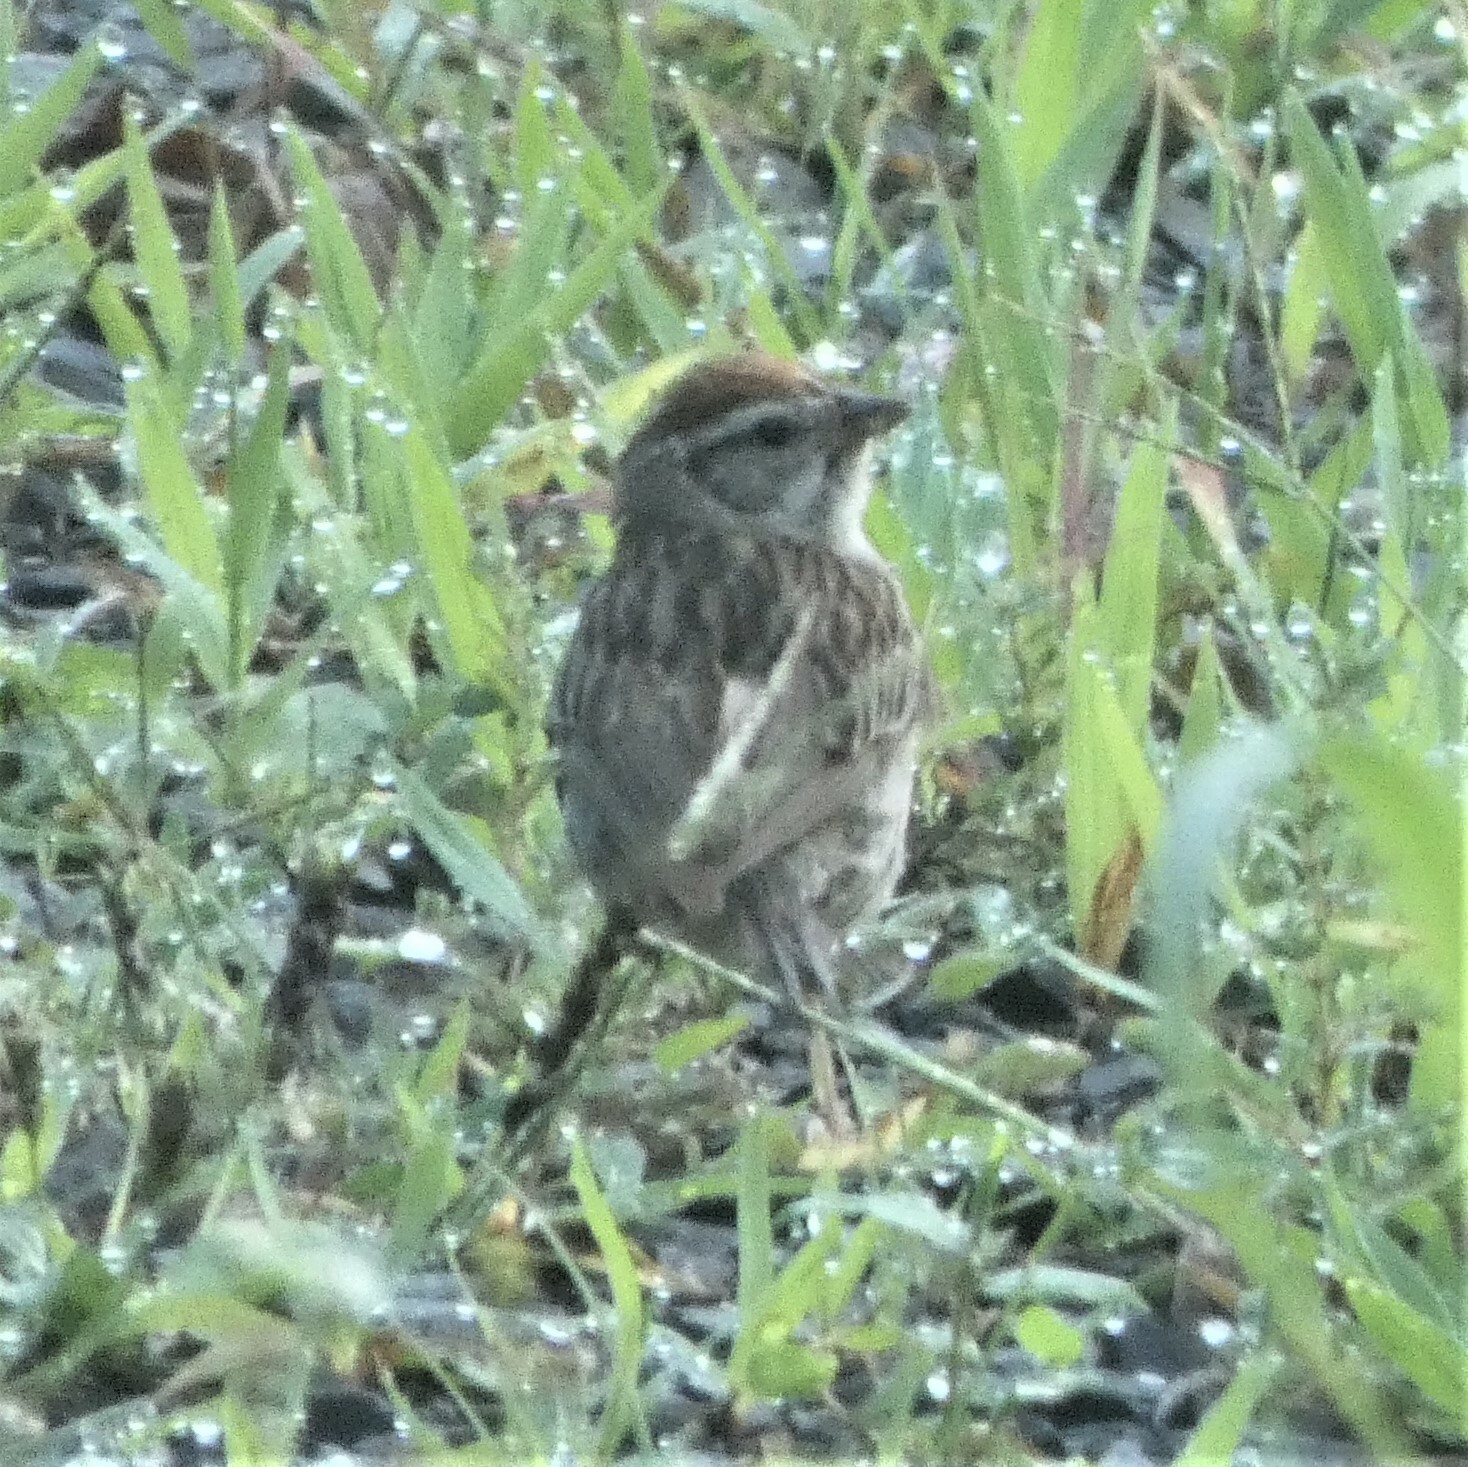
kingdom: Animalia
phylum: Chordata
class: Aves
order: Passeriformes
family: Passerellidae
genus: Spizella
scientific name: Spizella passerina
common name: Chipping sparrow
